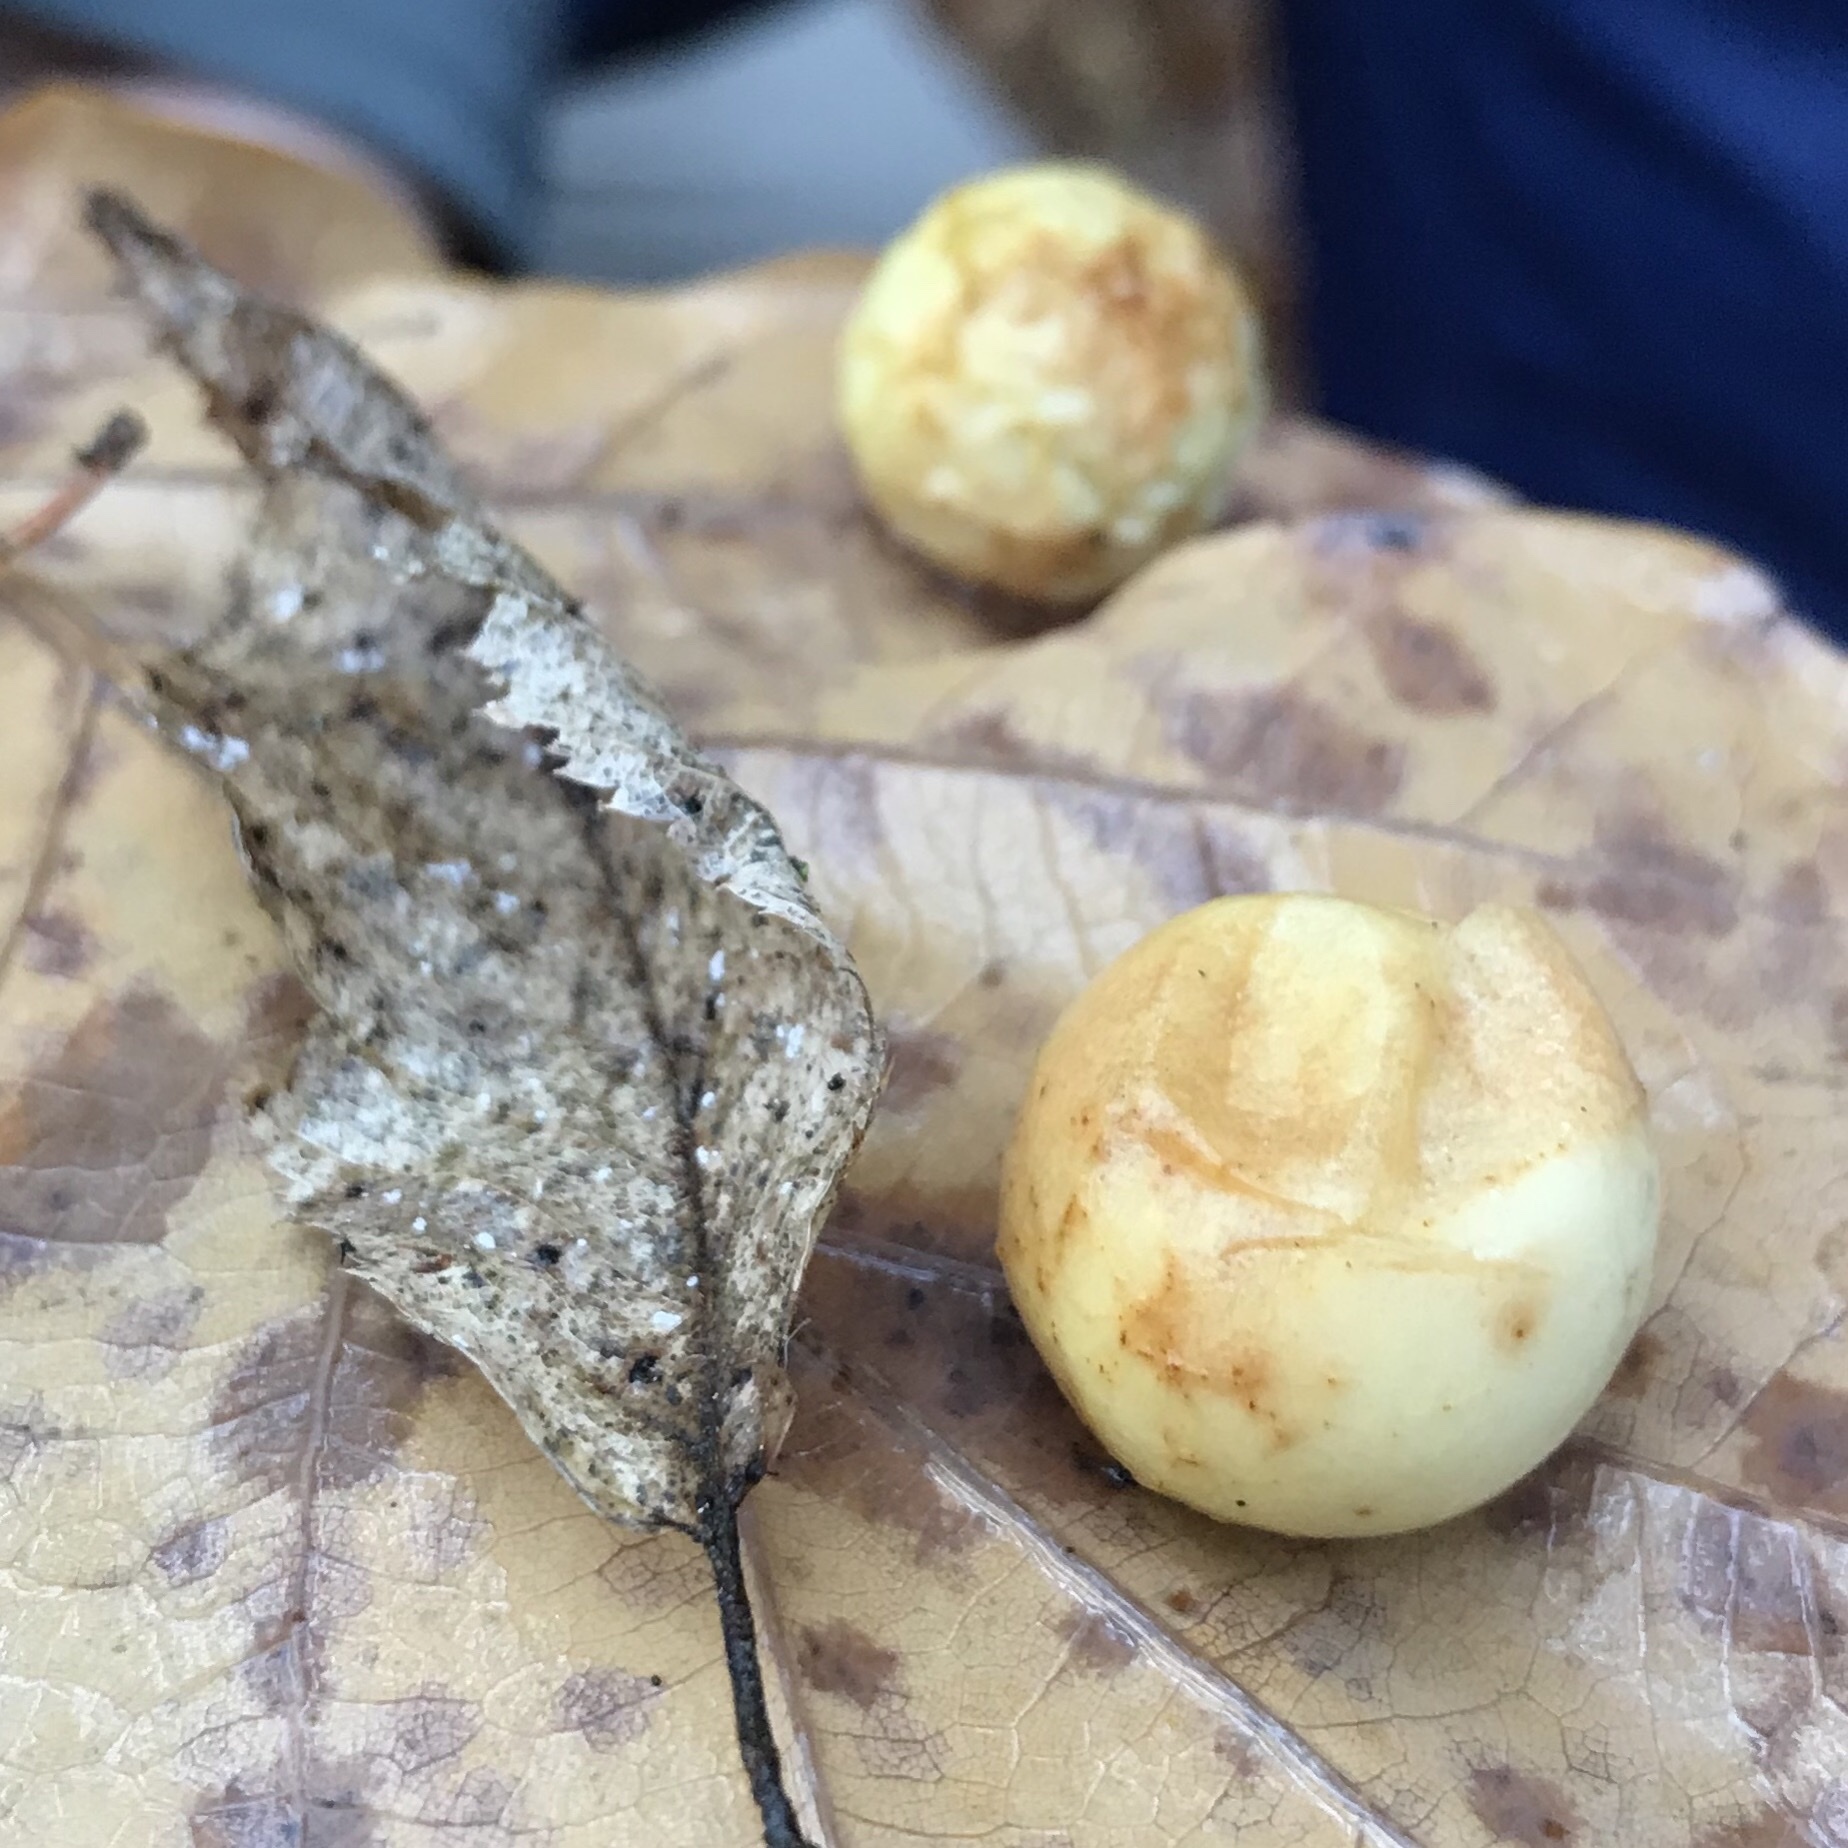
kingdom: Animalia
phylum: Arthropoda
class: Insecta
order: Hymenoptera
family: Cynipidae
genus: Cynips
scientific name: Cynips quercusfolii
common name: Cherry gall
